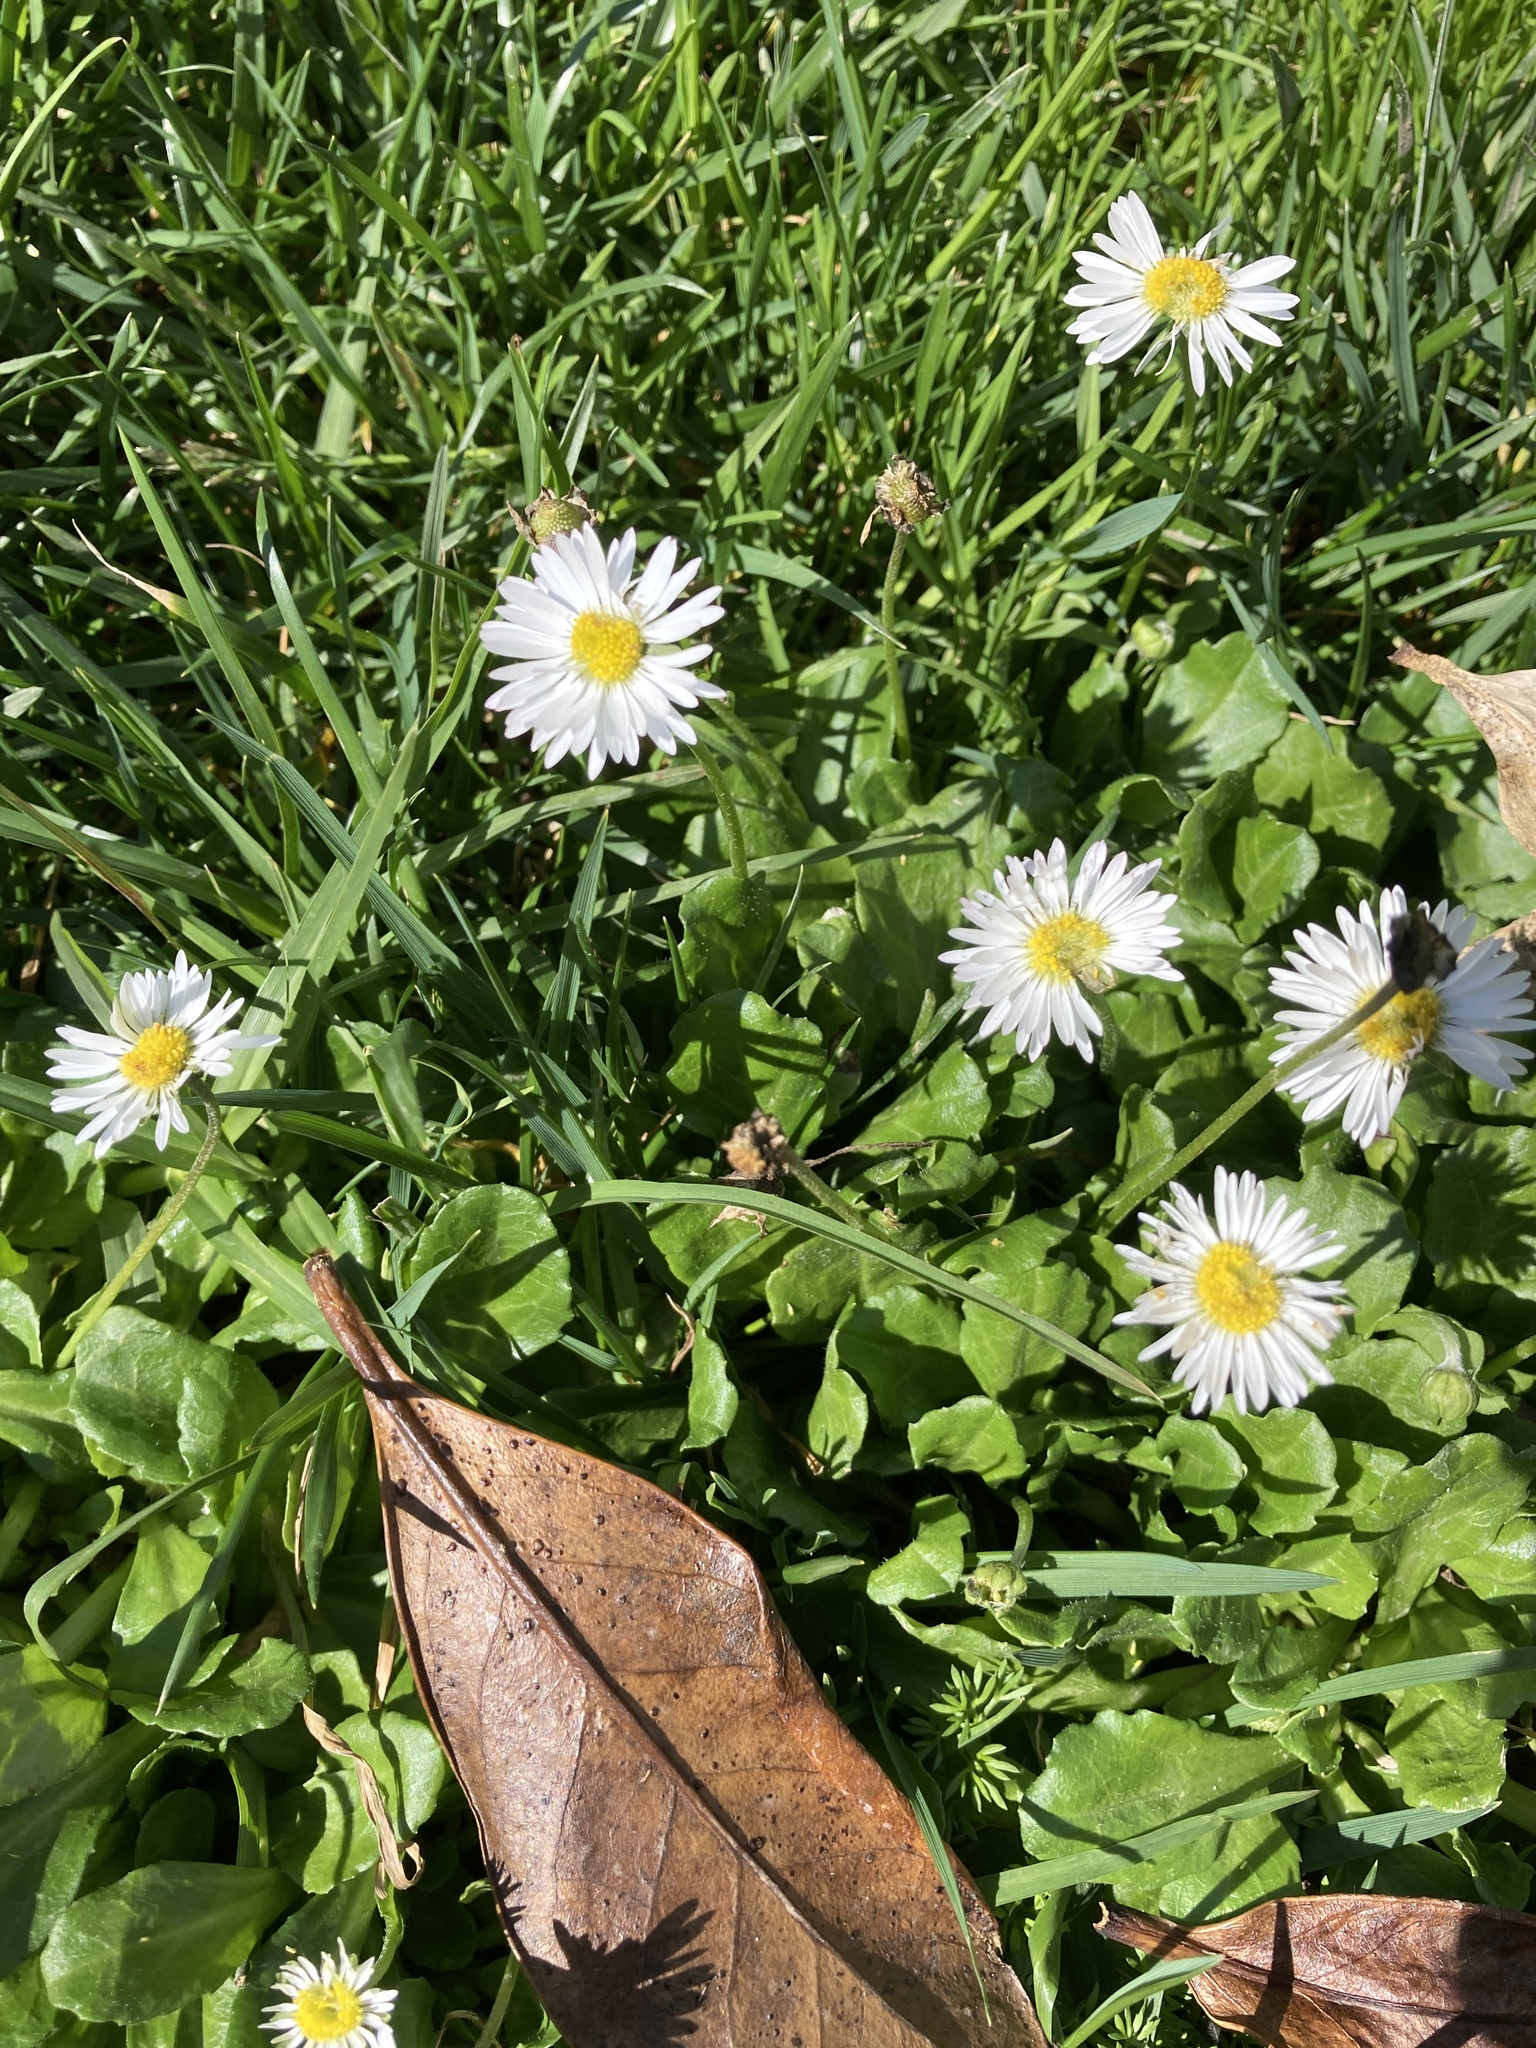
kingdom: Plantae
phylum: Tracheophyta
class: Magnoliopsida
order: Asterales
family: Asteraceae
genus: Bellis
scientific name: Bellis perennis
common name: Lawndaisy
